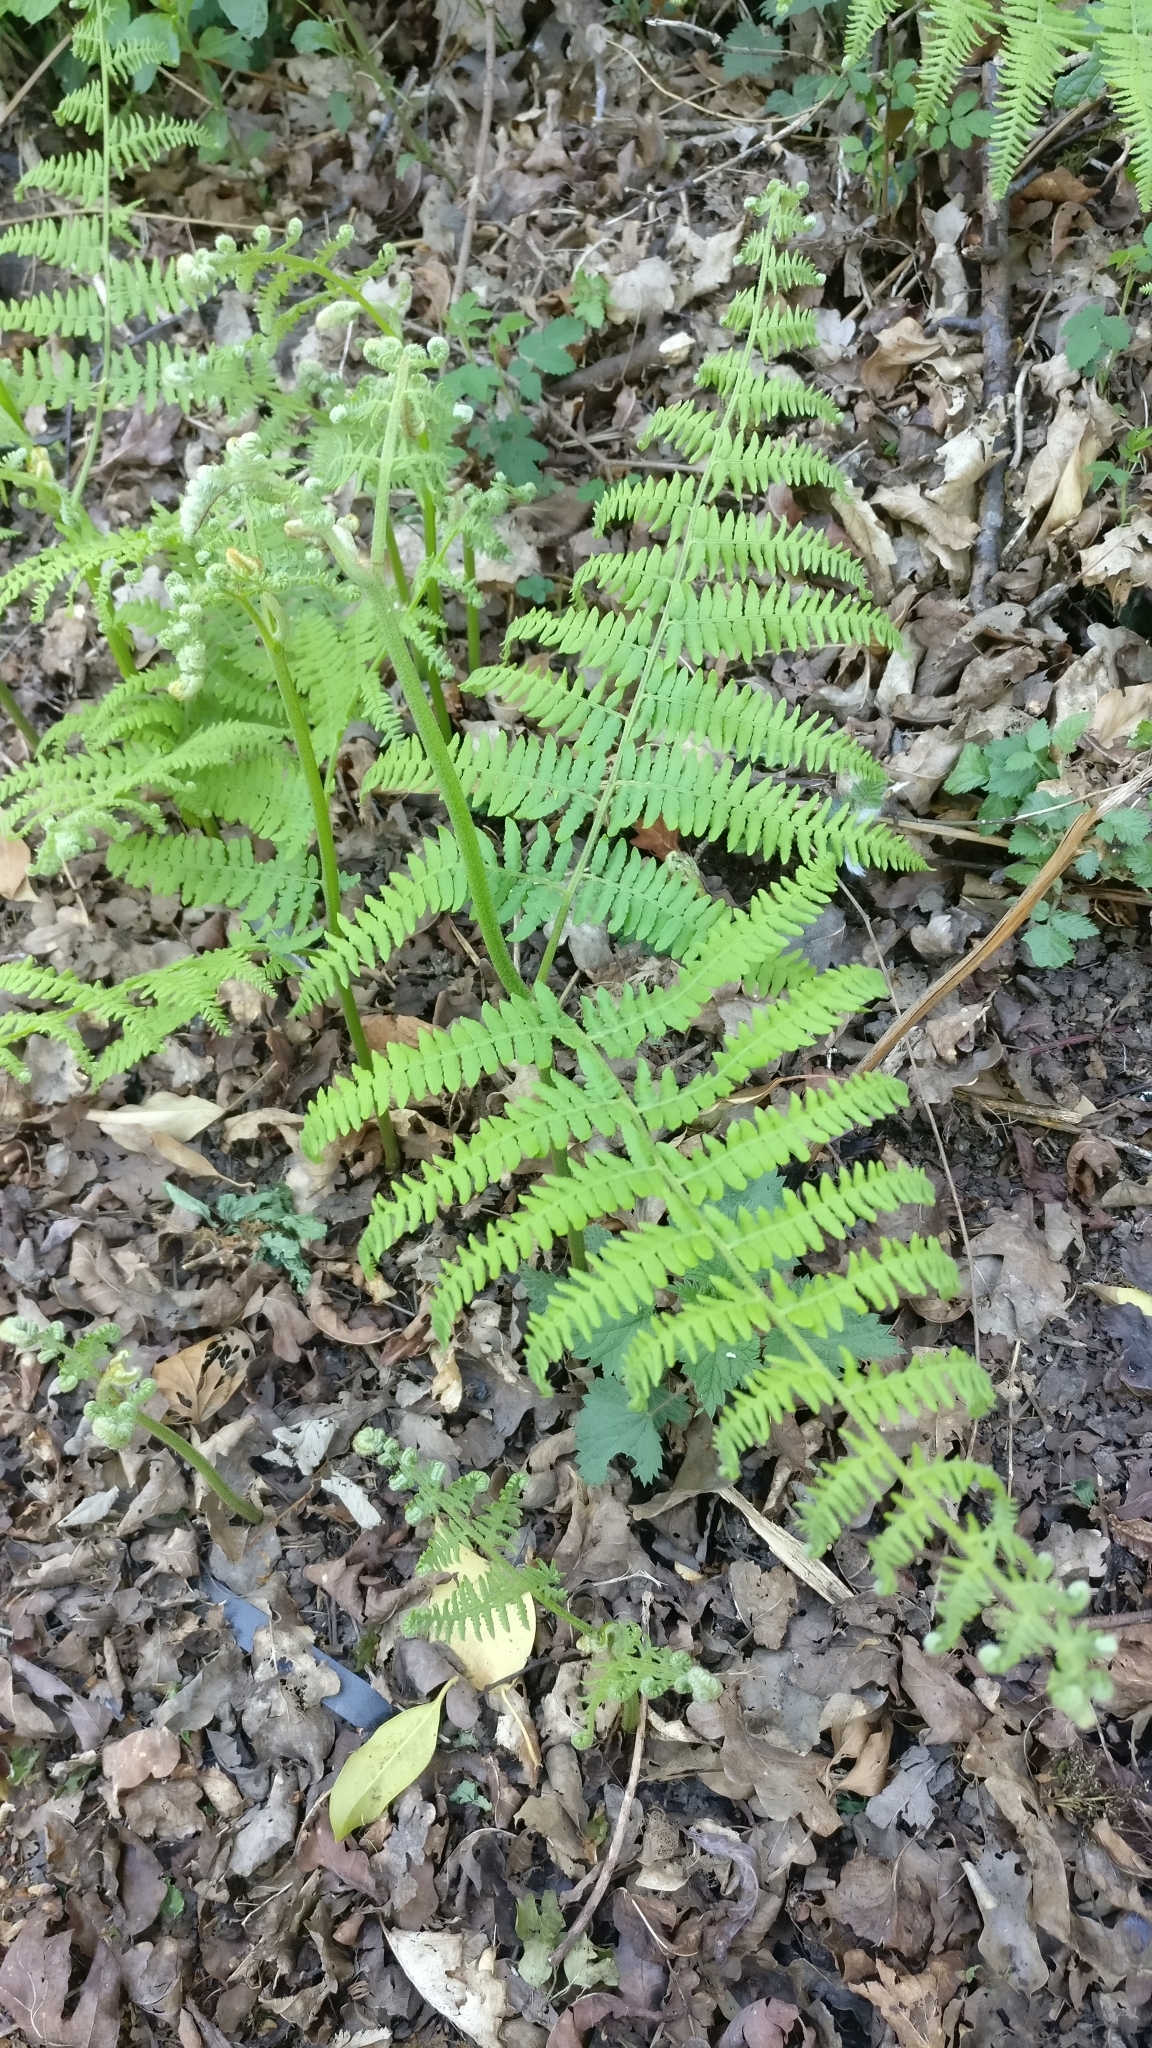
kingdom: Plantae
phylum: Tracheophyta
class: Polypodiopsida
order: Polypodiales
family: Dennstaedtiaceae
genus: Pteridium
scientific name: Pteridium aquilinum
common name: Bracken
